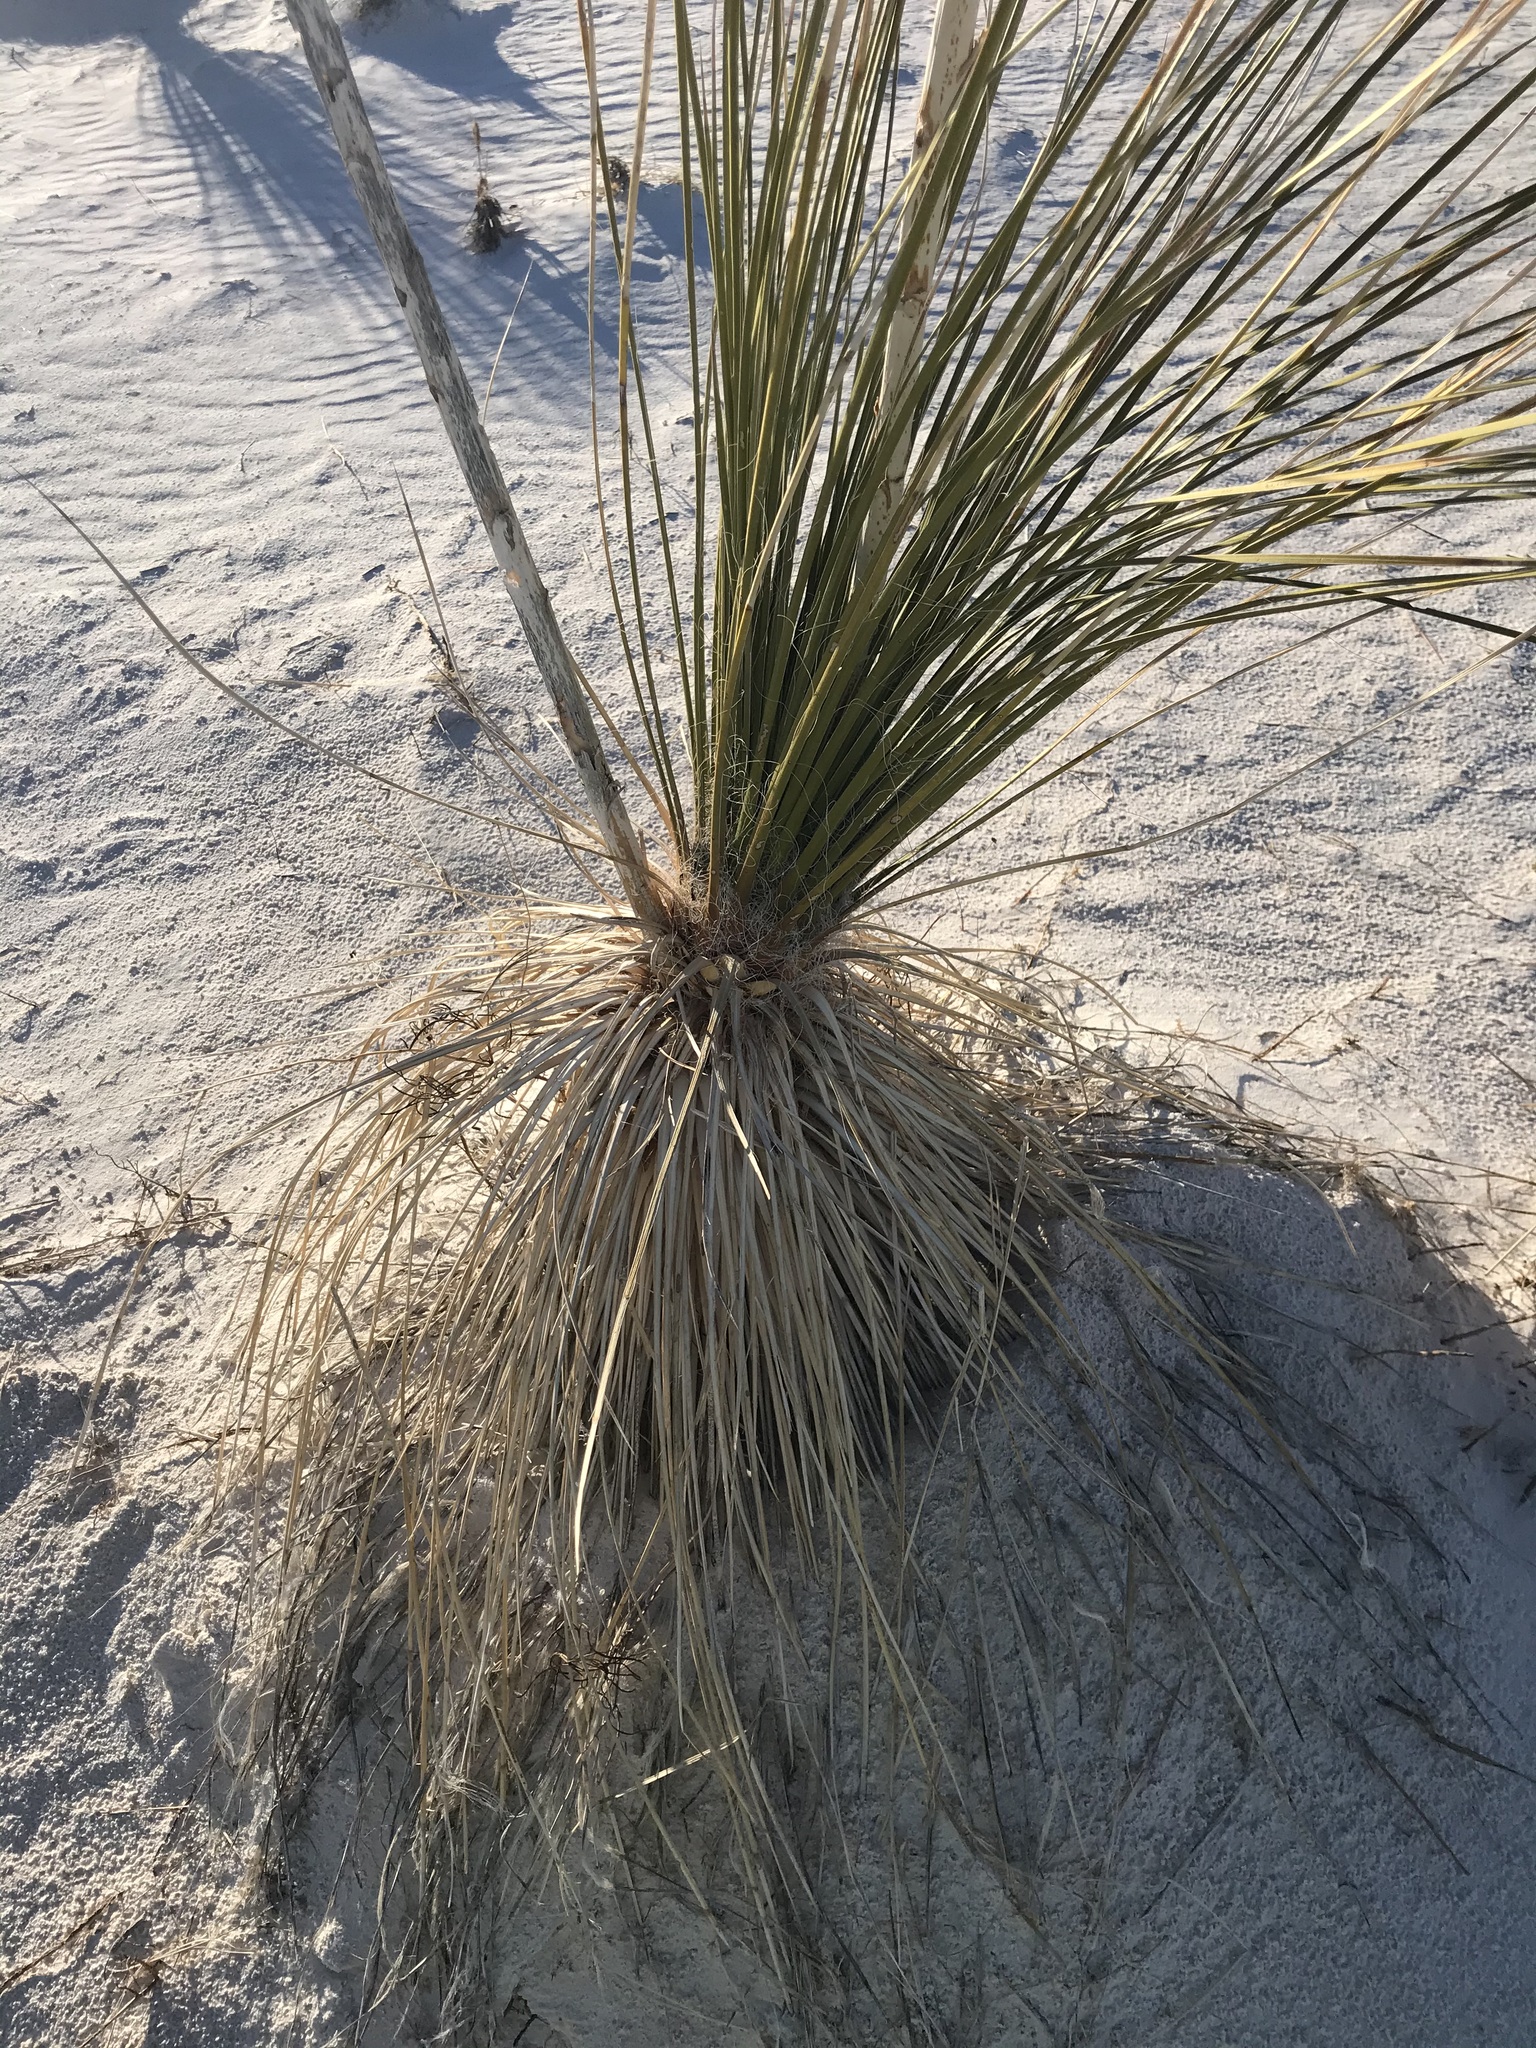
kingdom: Plantae
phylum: Tracheophyta
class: Liliopsida
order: Asparagales
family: Asparagaceae
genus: Yucca
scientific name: Yucca elata
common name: Palmella
